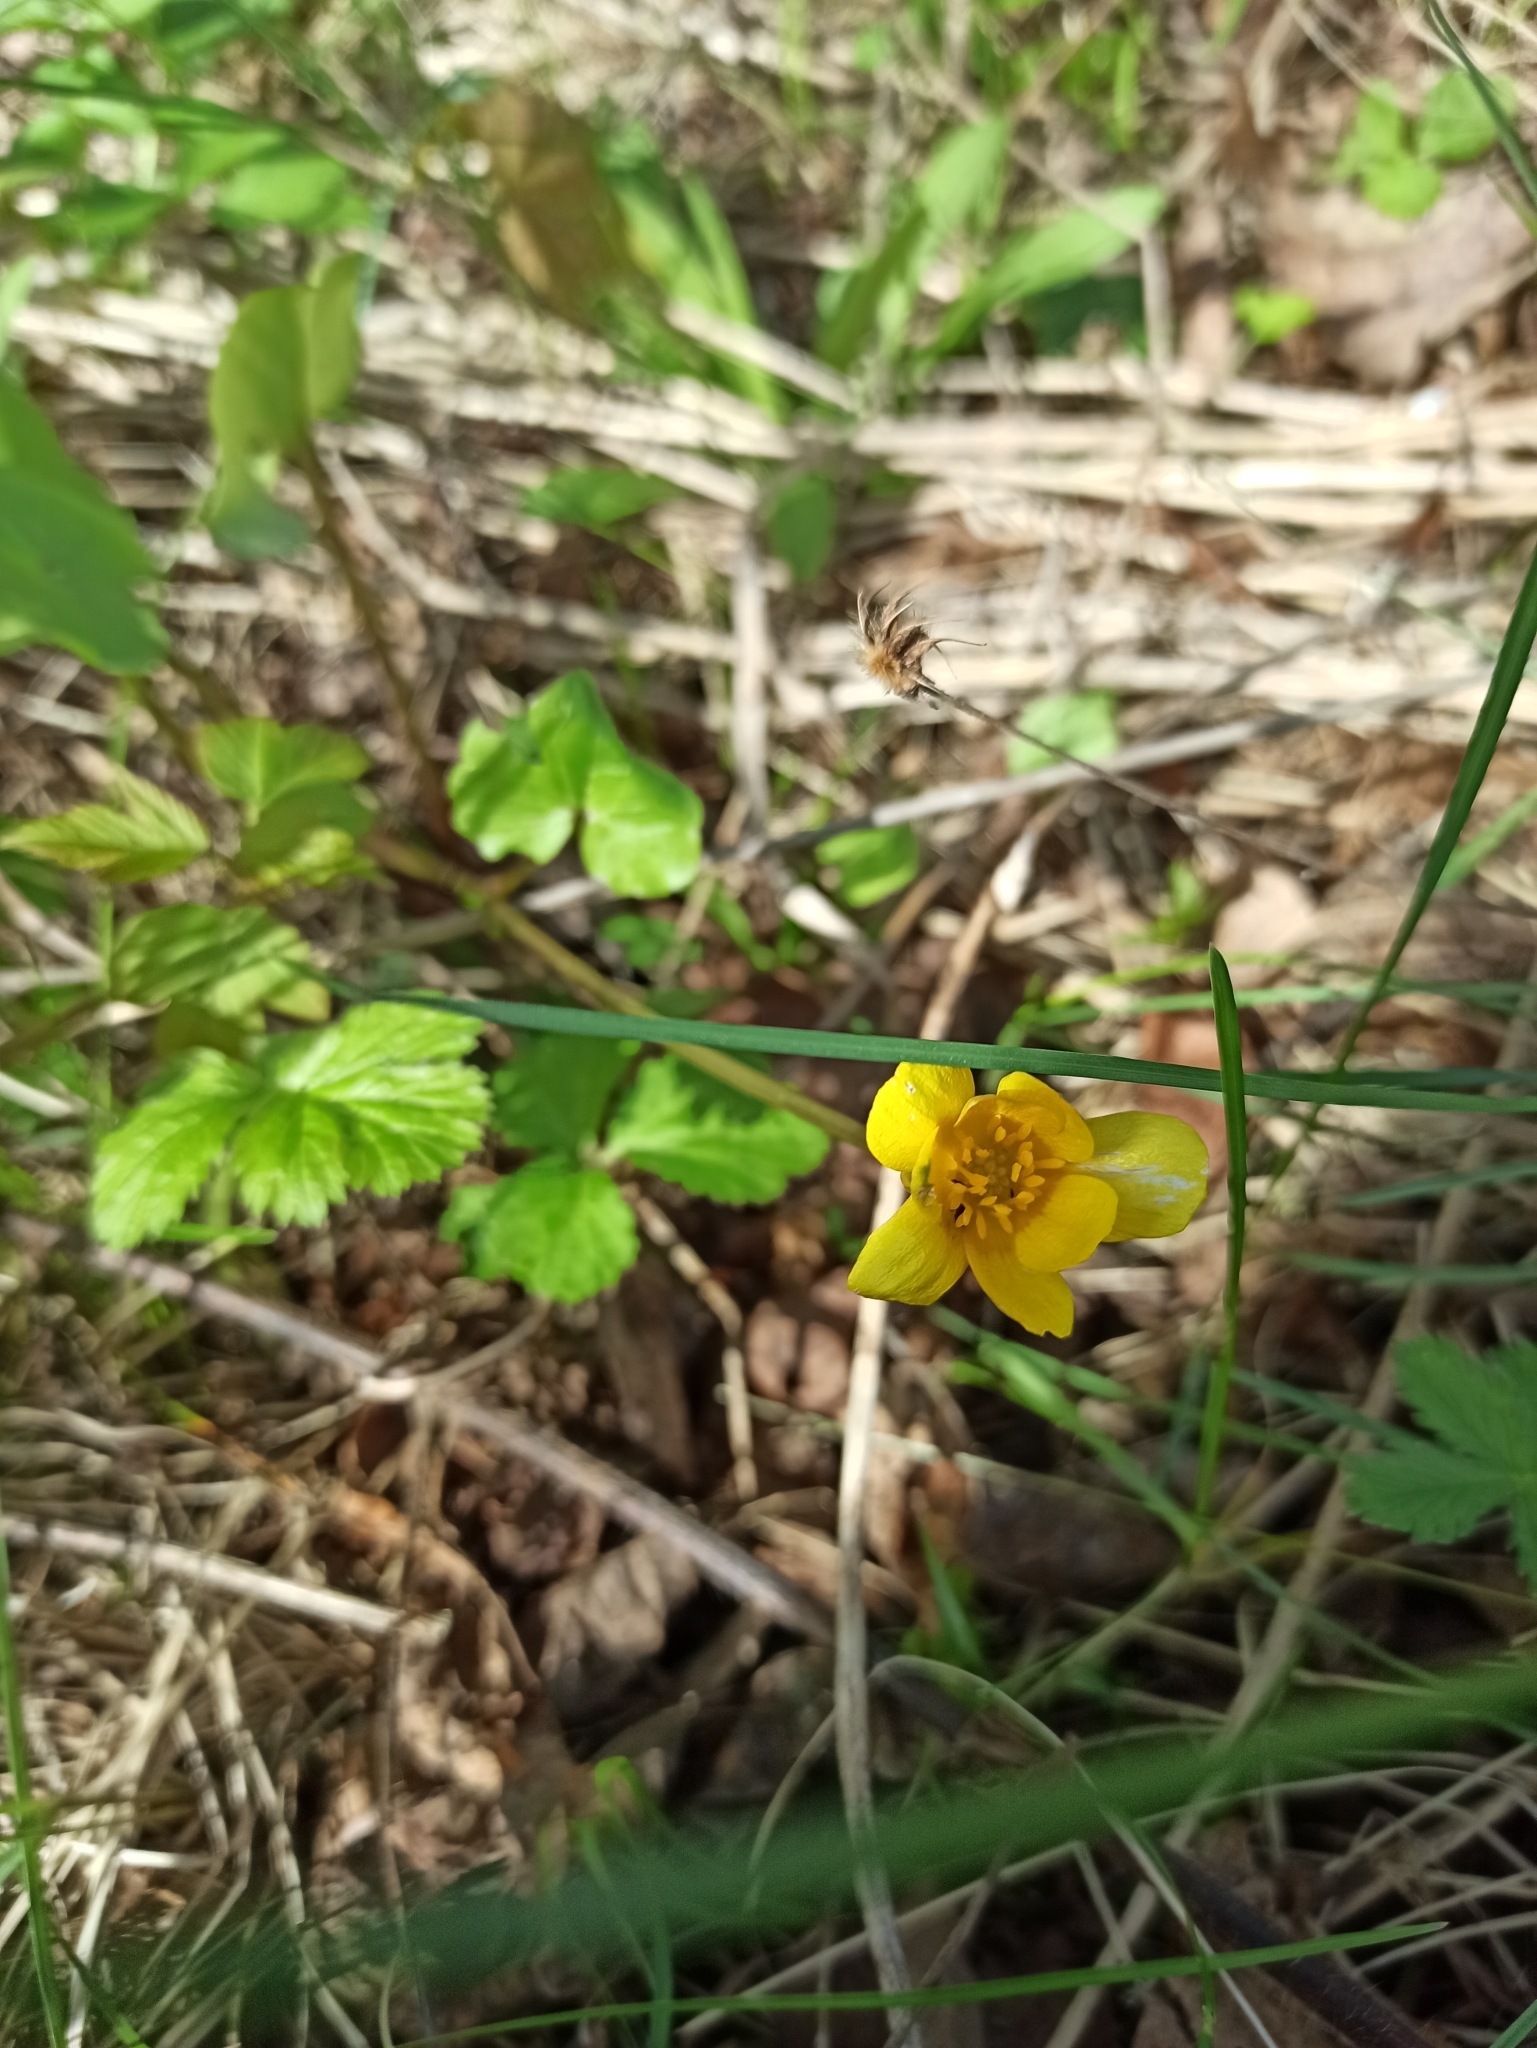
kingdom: Plantae
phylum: Tracheophyta
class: Magnoliopsida
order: Ranunculales
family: Ranunculaceae
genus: Ficaria
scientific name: Ficaria verna
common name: Lesser celandine
